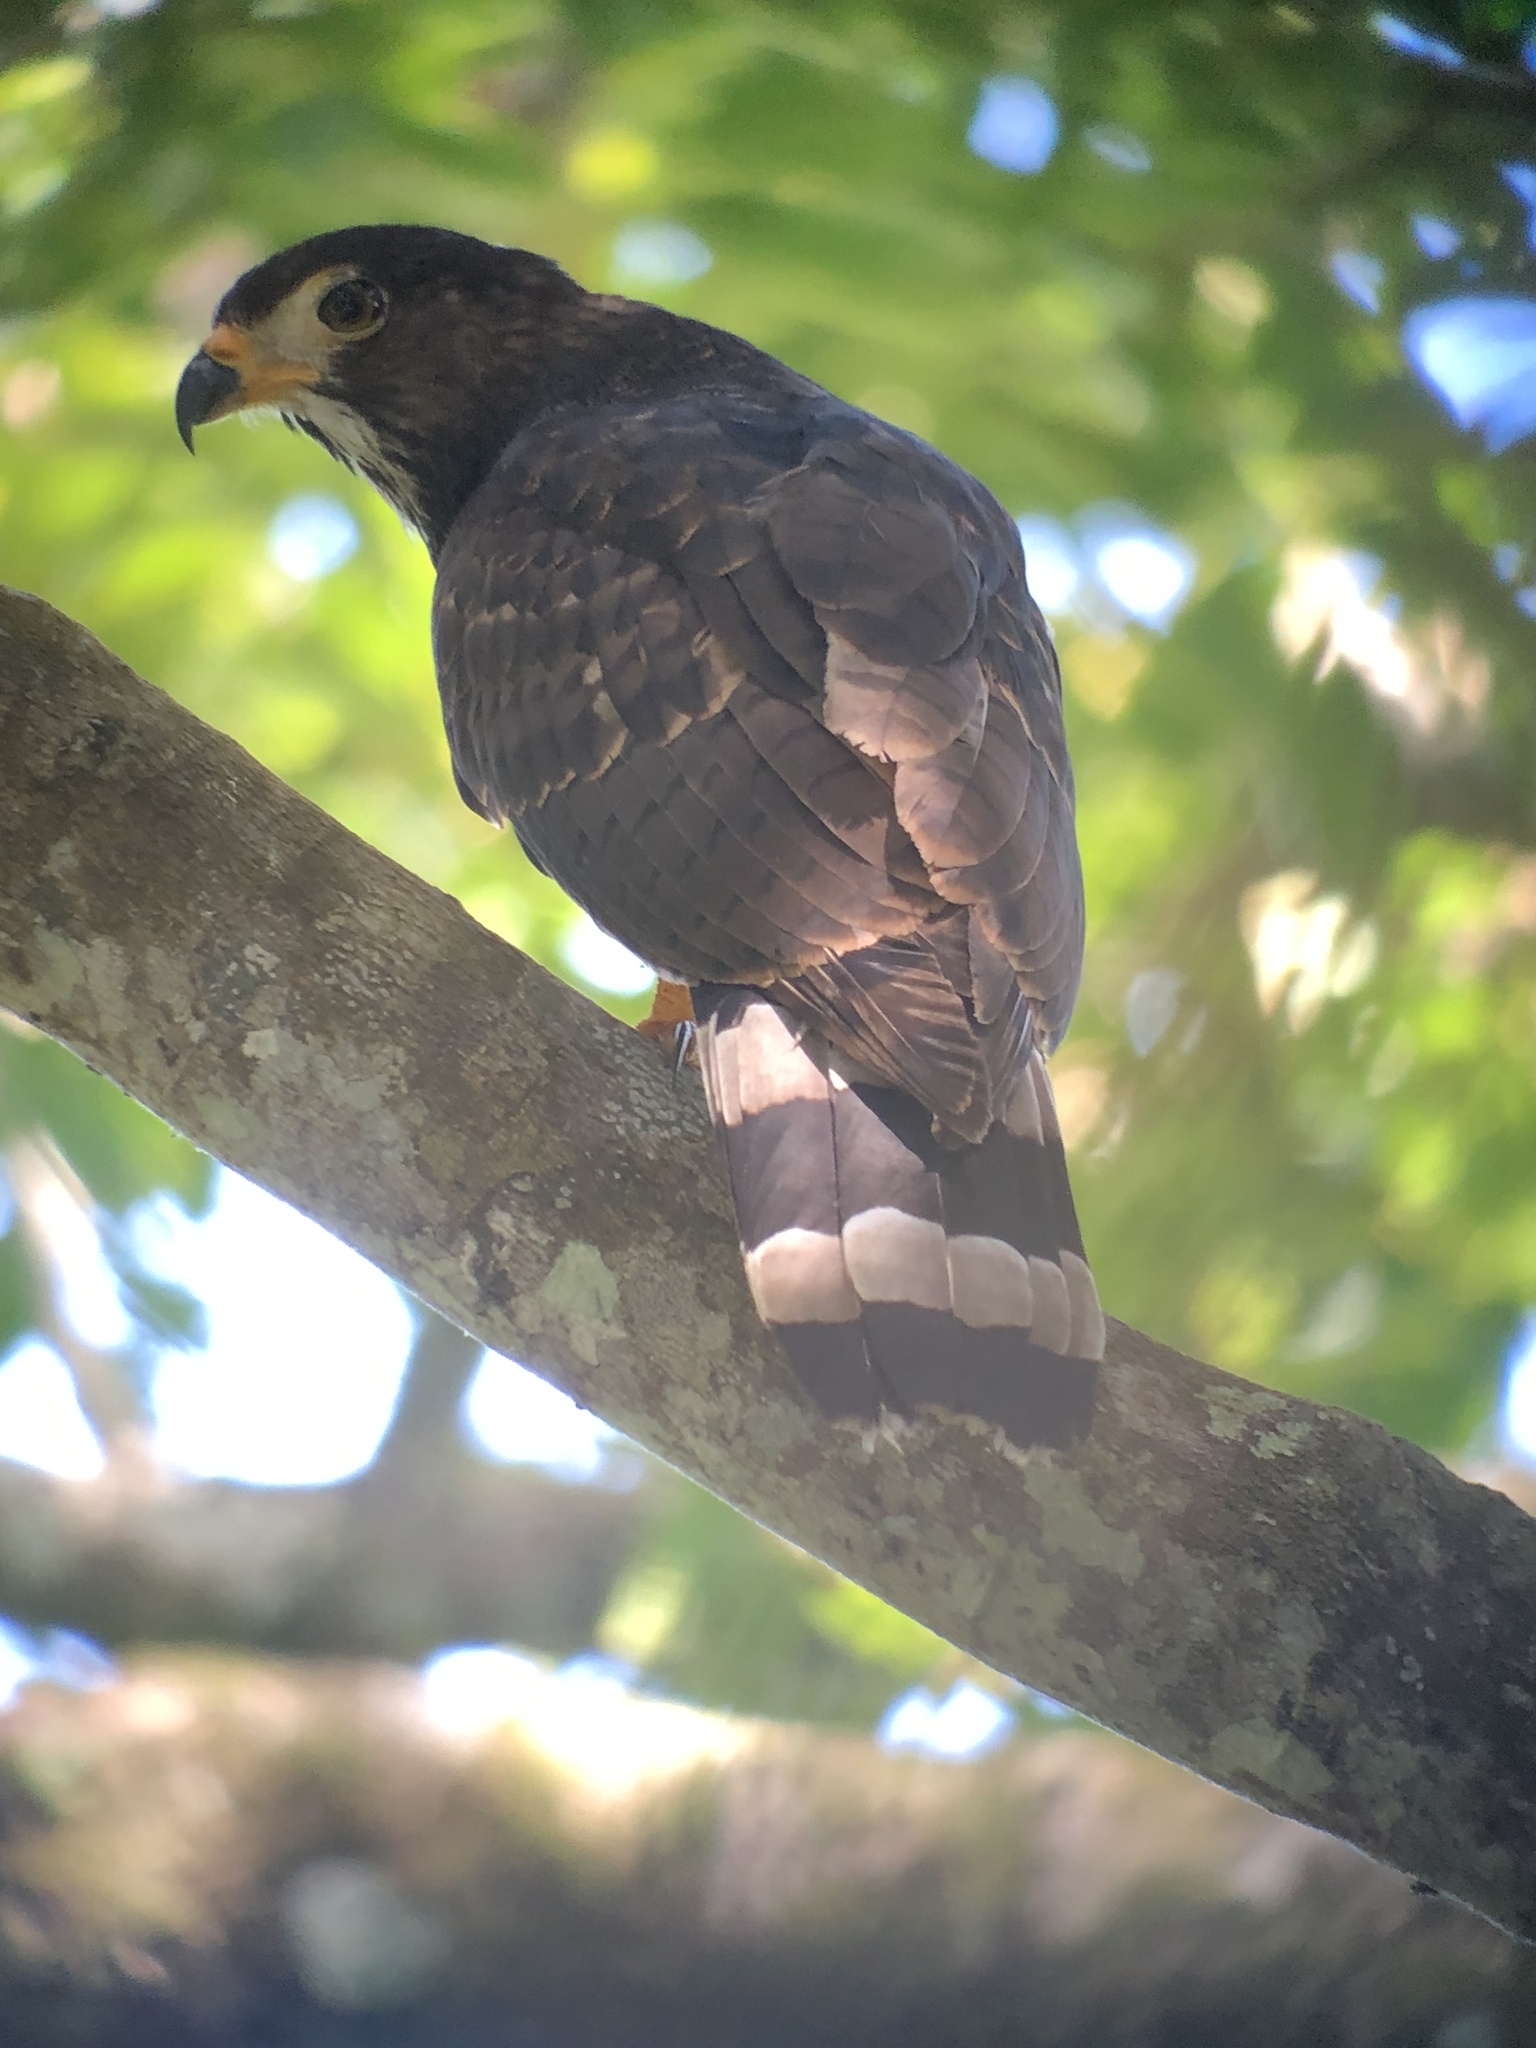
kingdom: Animalia
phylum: Chordata
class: Aves
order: Accipitriformes
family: Accipitridae
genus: Leptodon
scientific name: Leptodon cayanensis
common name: Gray-headed kite
